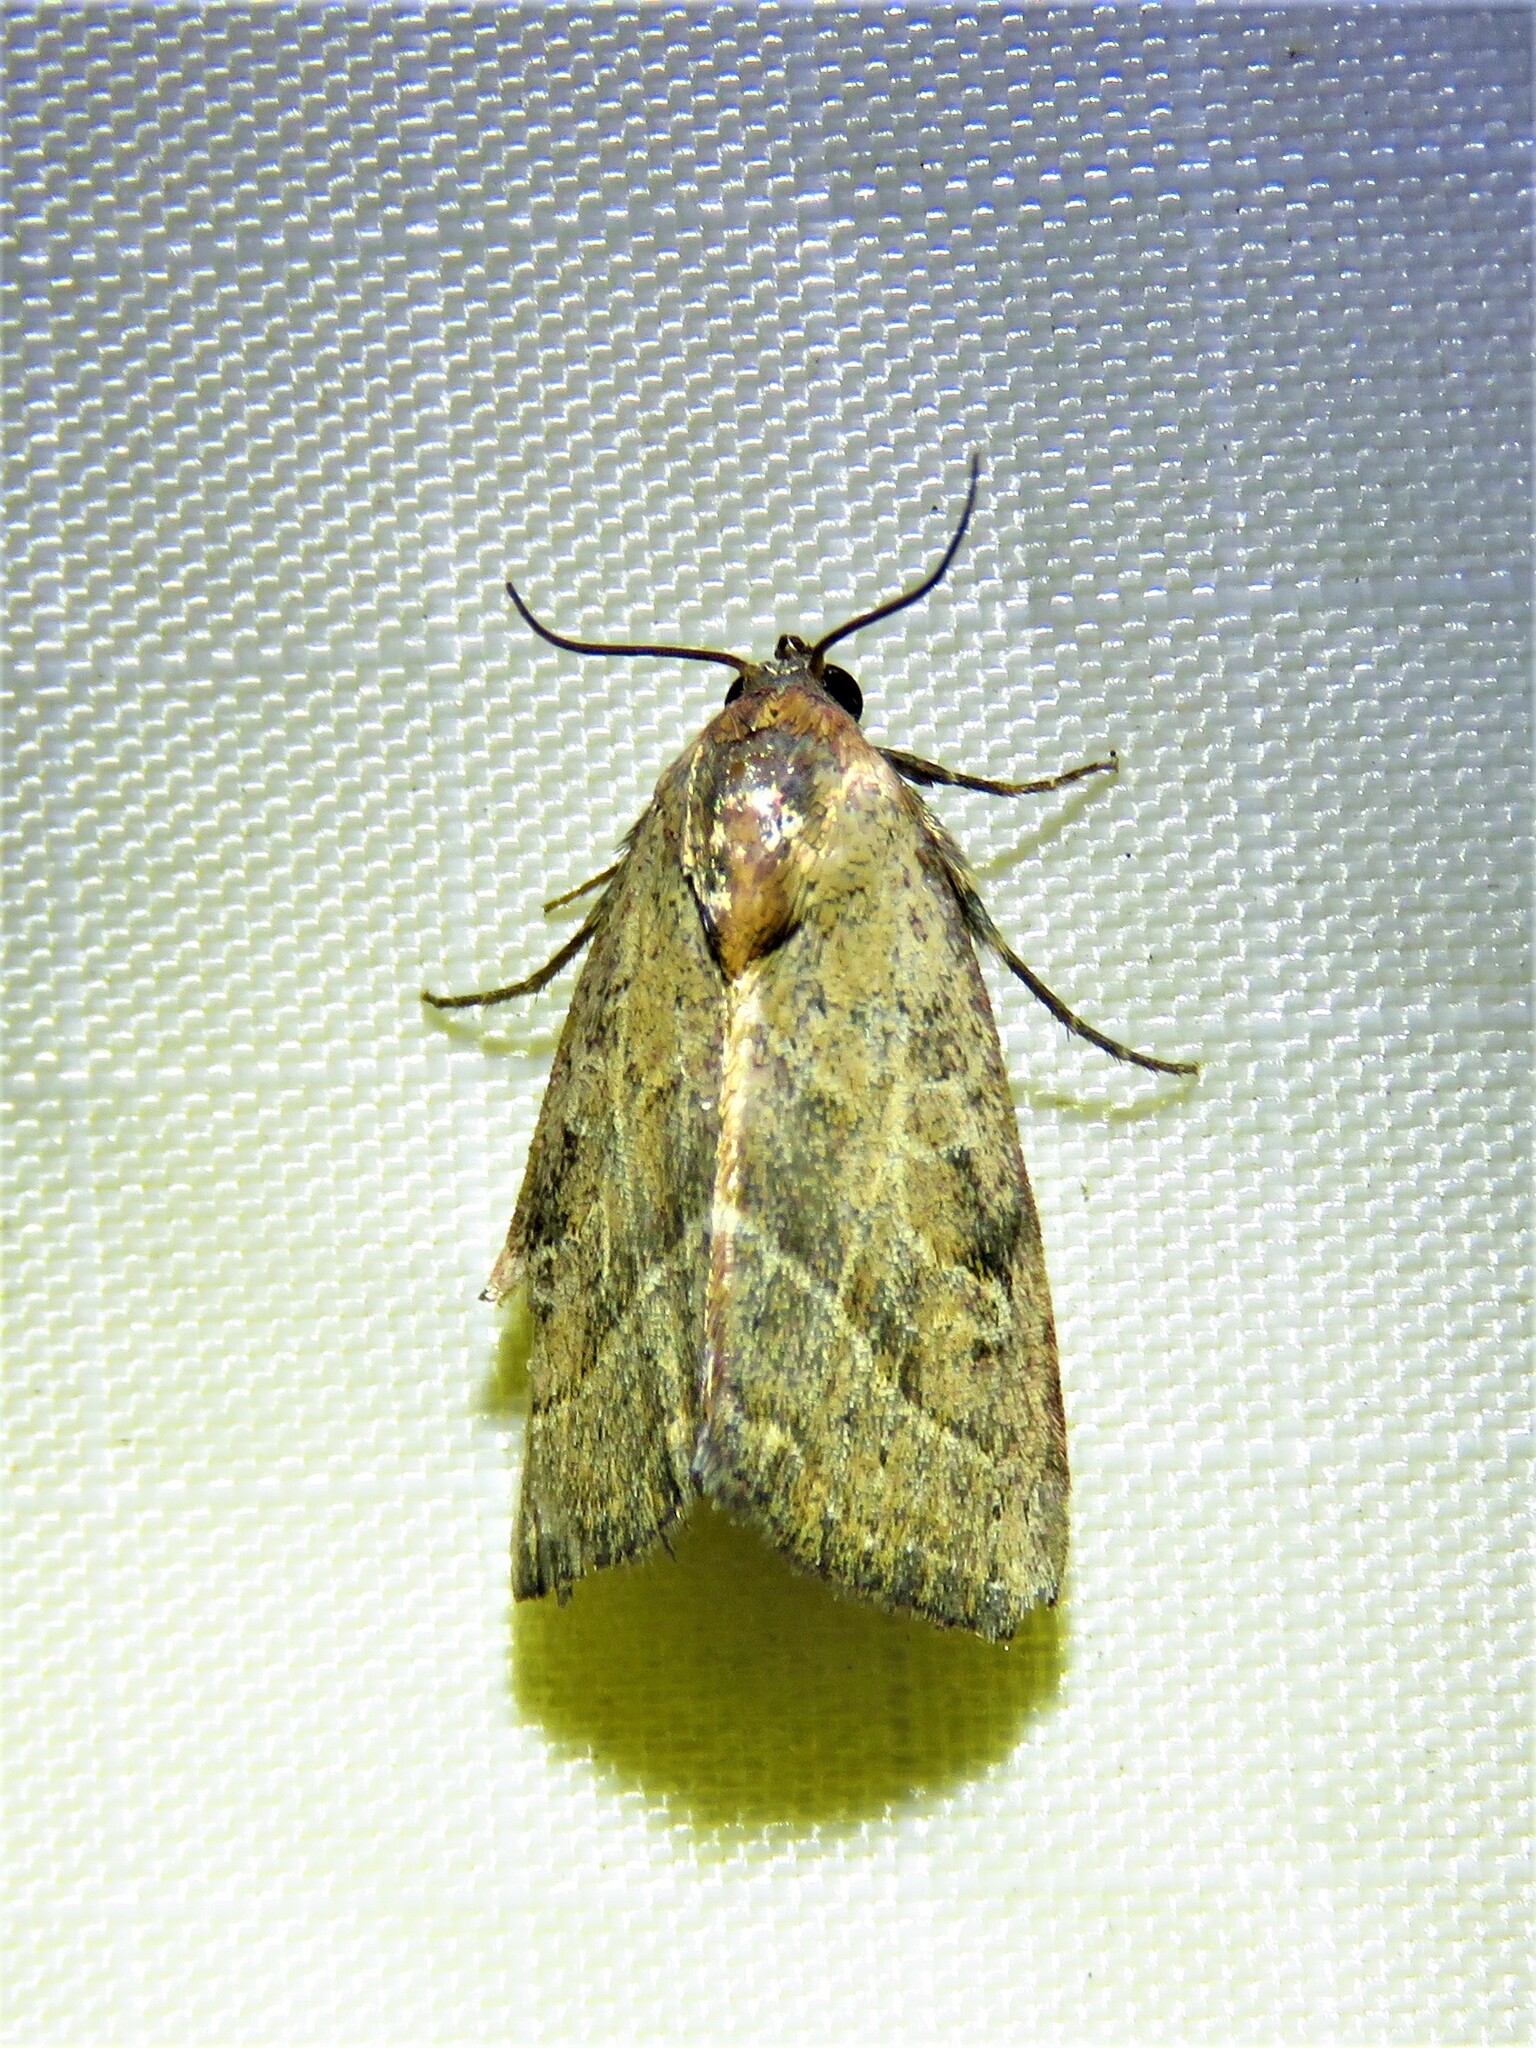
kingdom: Animalia
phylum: Arthropoda
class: Insecta
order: Lepidoptera
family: Noctuidae
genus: Galgula
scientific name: Galgula partita
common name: Wedgeling
